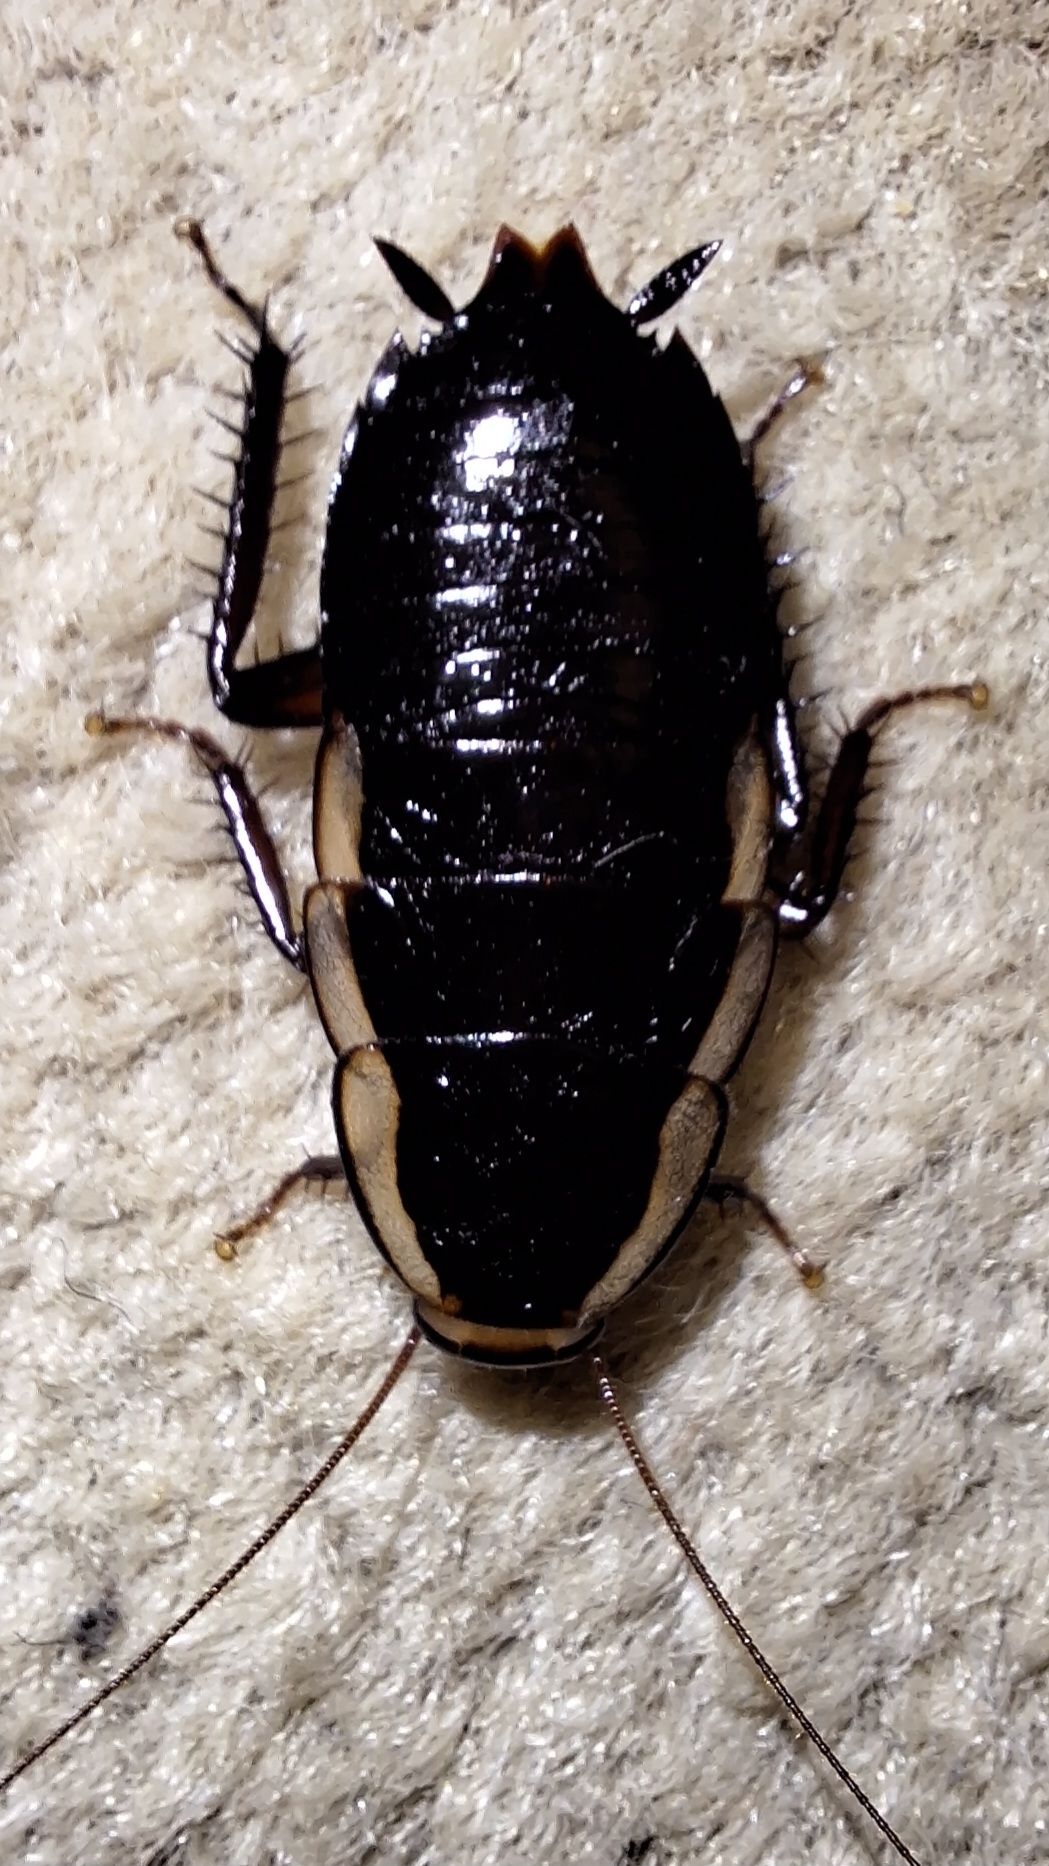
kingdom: Animalia
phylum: Arthropoda
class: Insecta
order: Blattodea
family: Blattidae
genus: Drymaplaneta
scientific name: Drymaplaneta semivitta
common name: Gisborne cockroach
